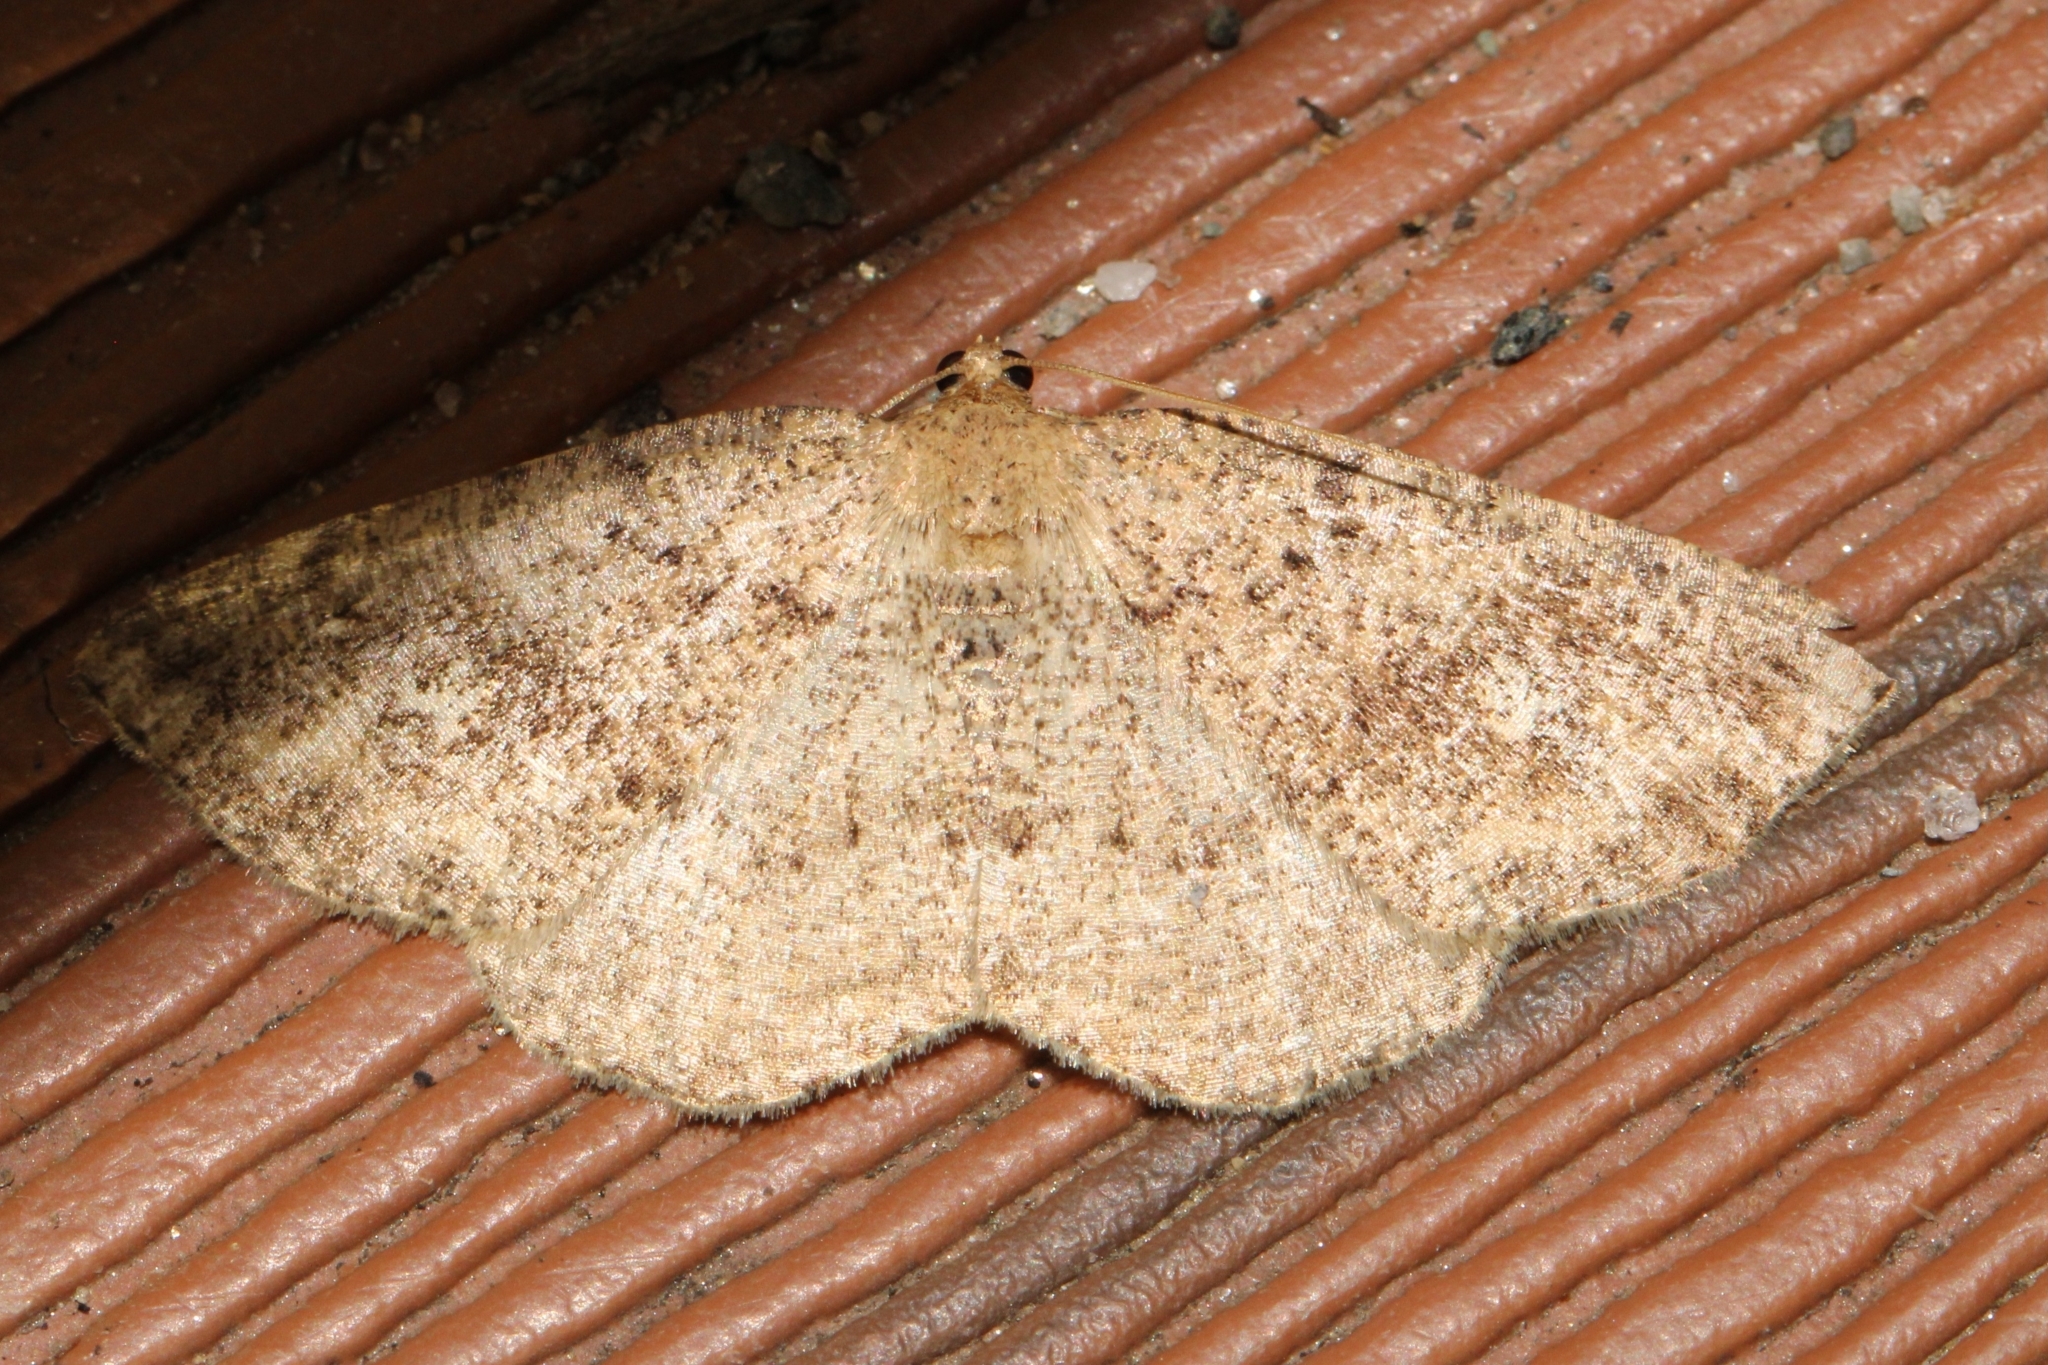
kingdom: Animalia
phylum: Arthropoda
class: Insecta
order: Lepidoptera
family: Geometridae
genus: Homochlodes
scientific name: Homochlodes fritillaria
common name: Pale homochlodes
